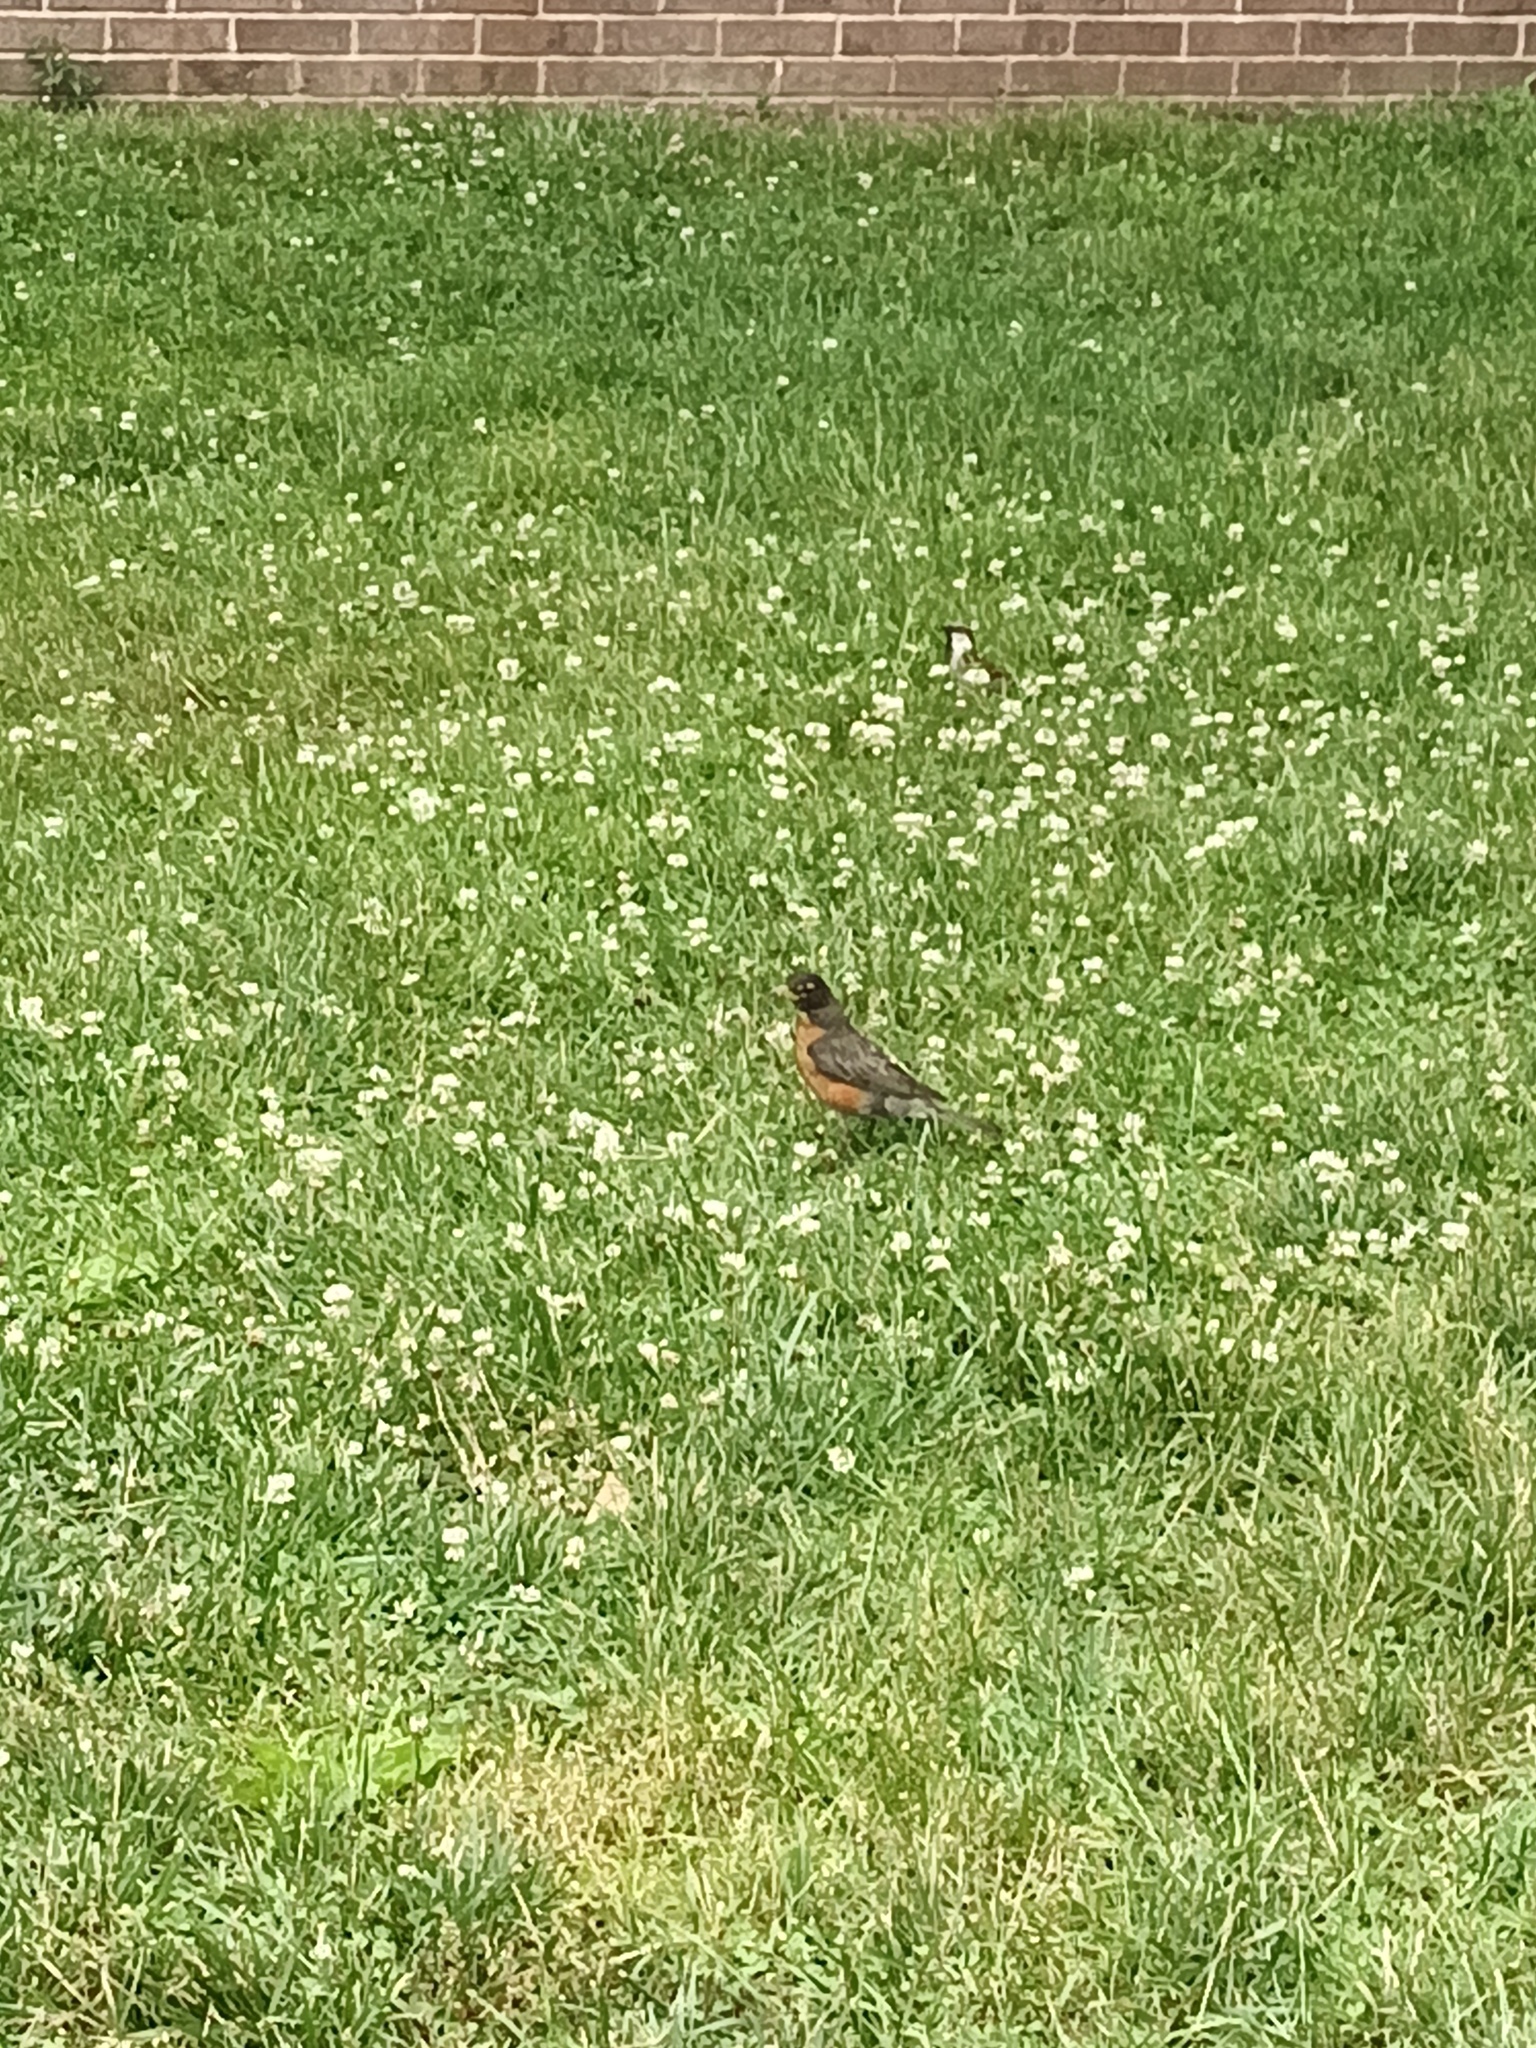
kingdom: Animalia
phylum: Chordata
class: Aves
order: Passeriformes
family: Turdidae
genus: Turdus
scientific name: Turdus migratorius
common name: American robin
